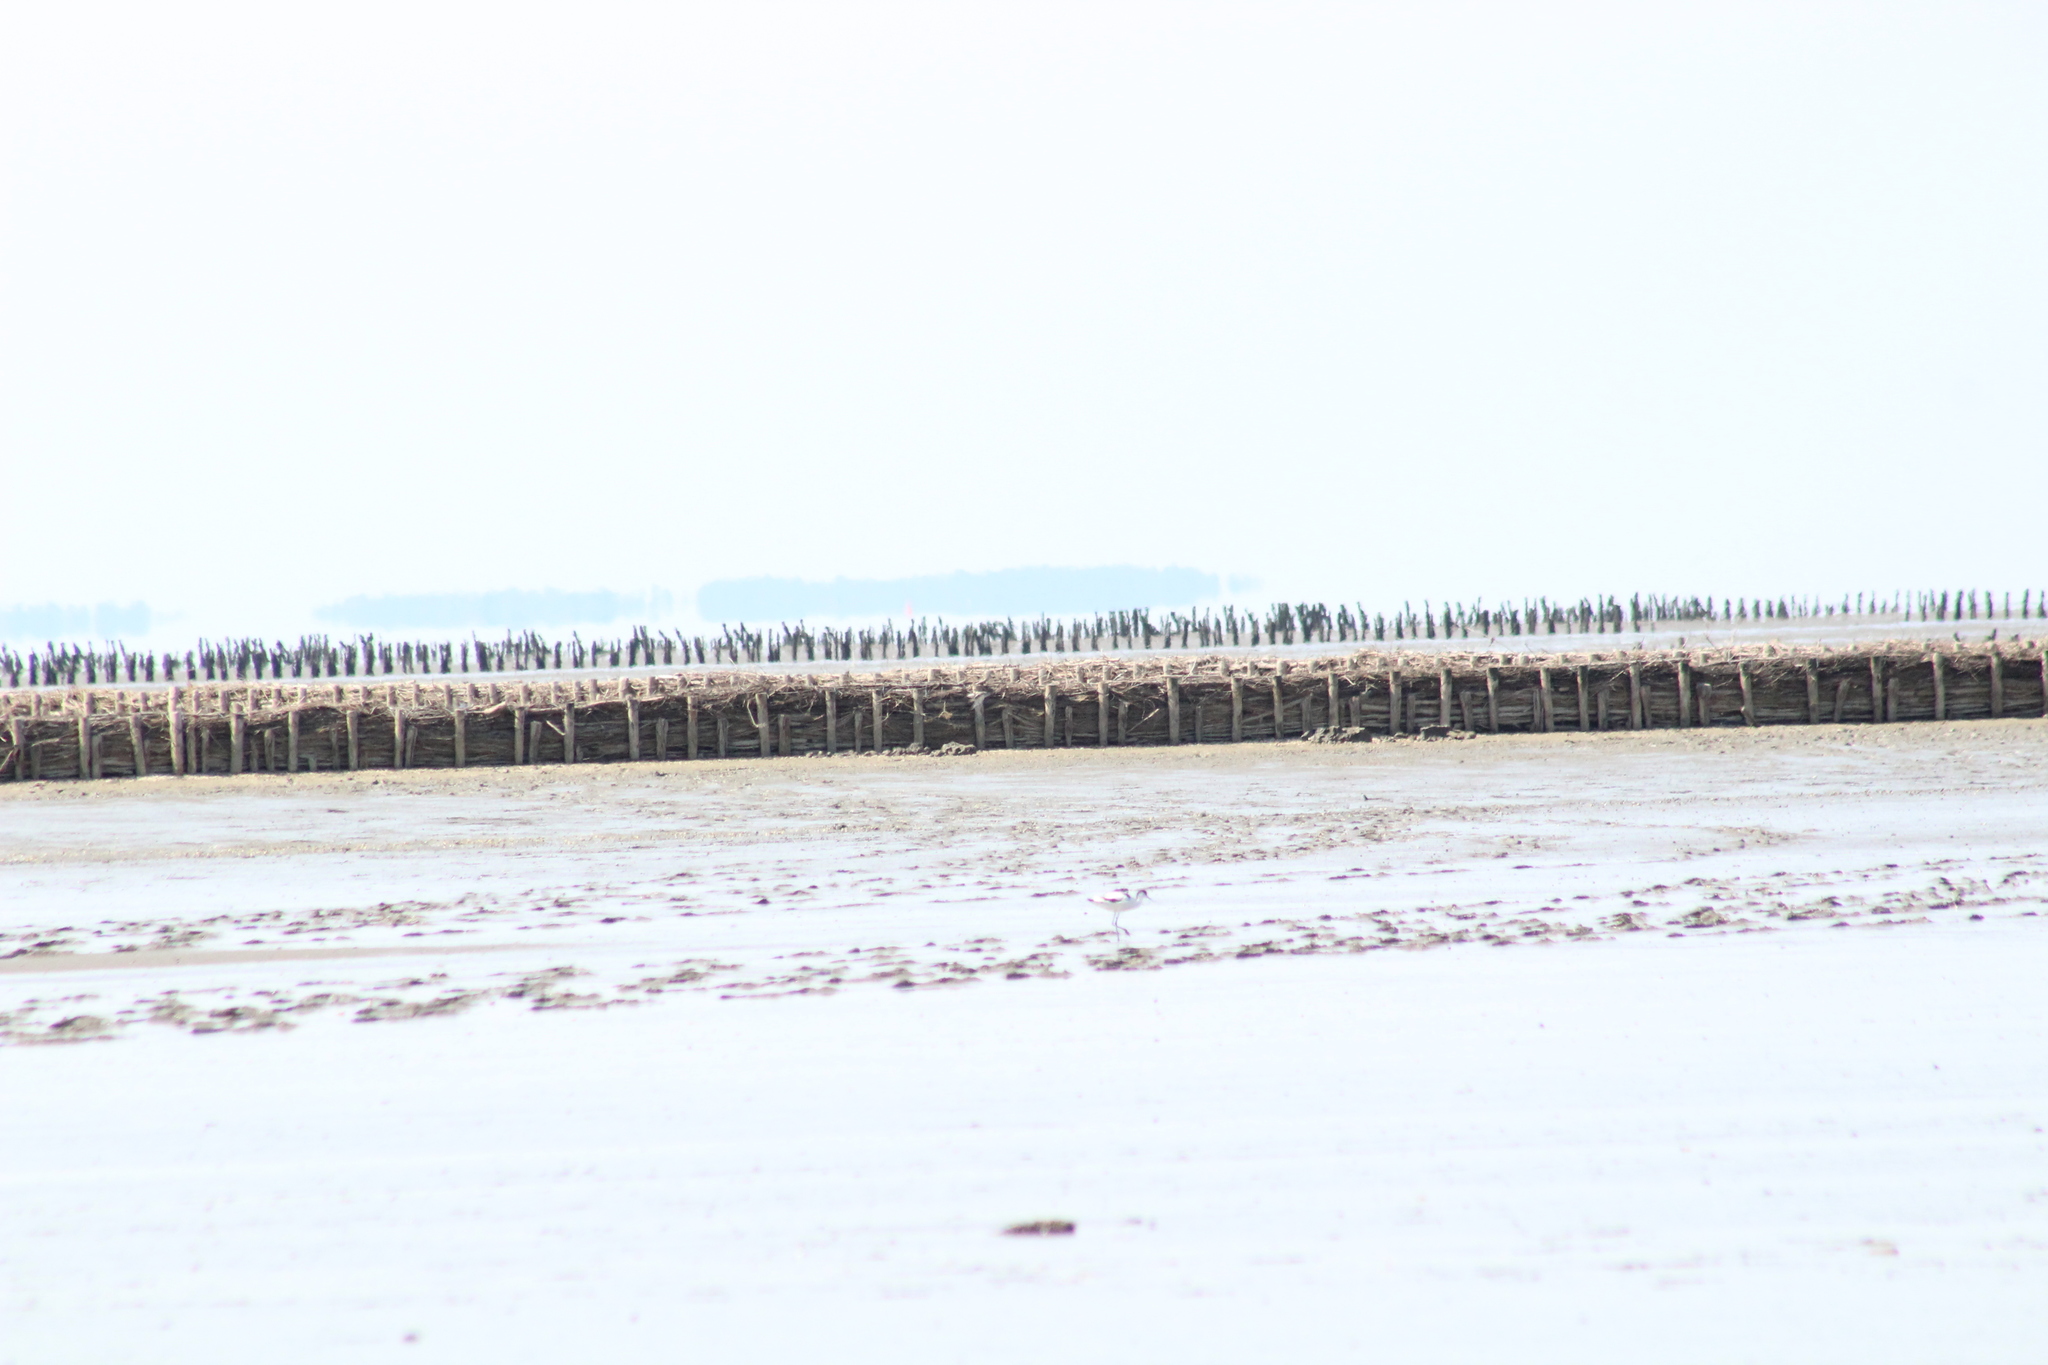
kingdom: Animalia
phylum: Chordata
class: Aves
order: Charadriiformes
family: Recurvirostridae
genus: Recurvirostra
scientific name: Recurvirostra avosetta
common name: Pied avocet
